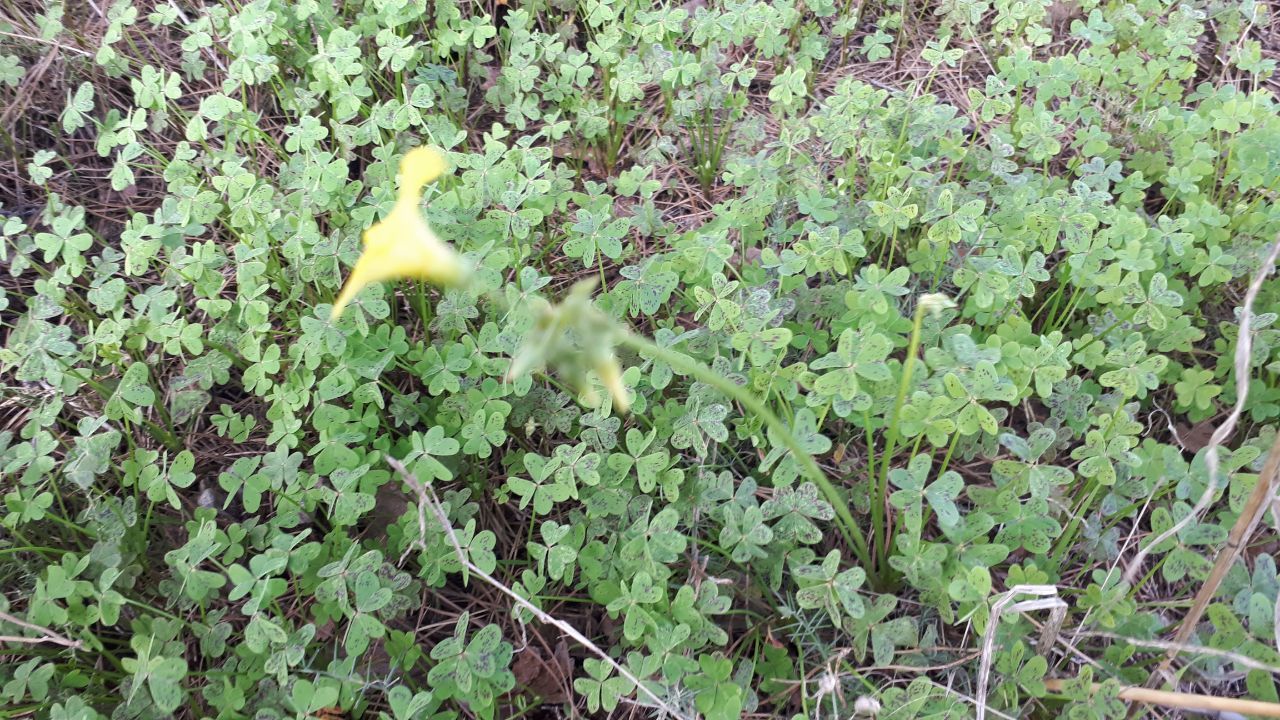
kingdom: Plantae
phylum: Tracheophyta
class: Magnoliopsida
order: Oxalidales
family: Oxalidaceae
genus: Oxalis
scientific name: Oxalis pes-caprae
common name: Bermuda-buttercup
